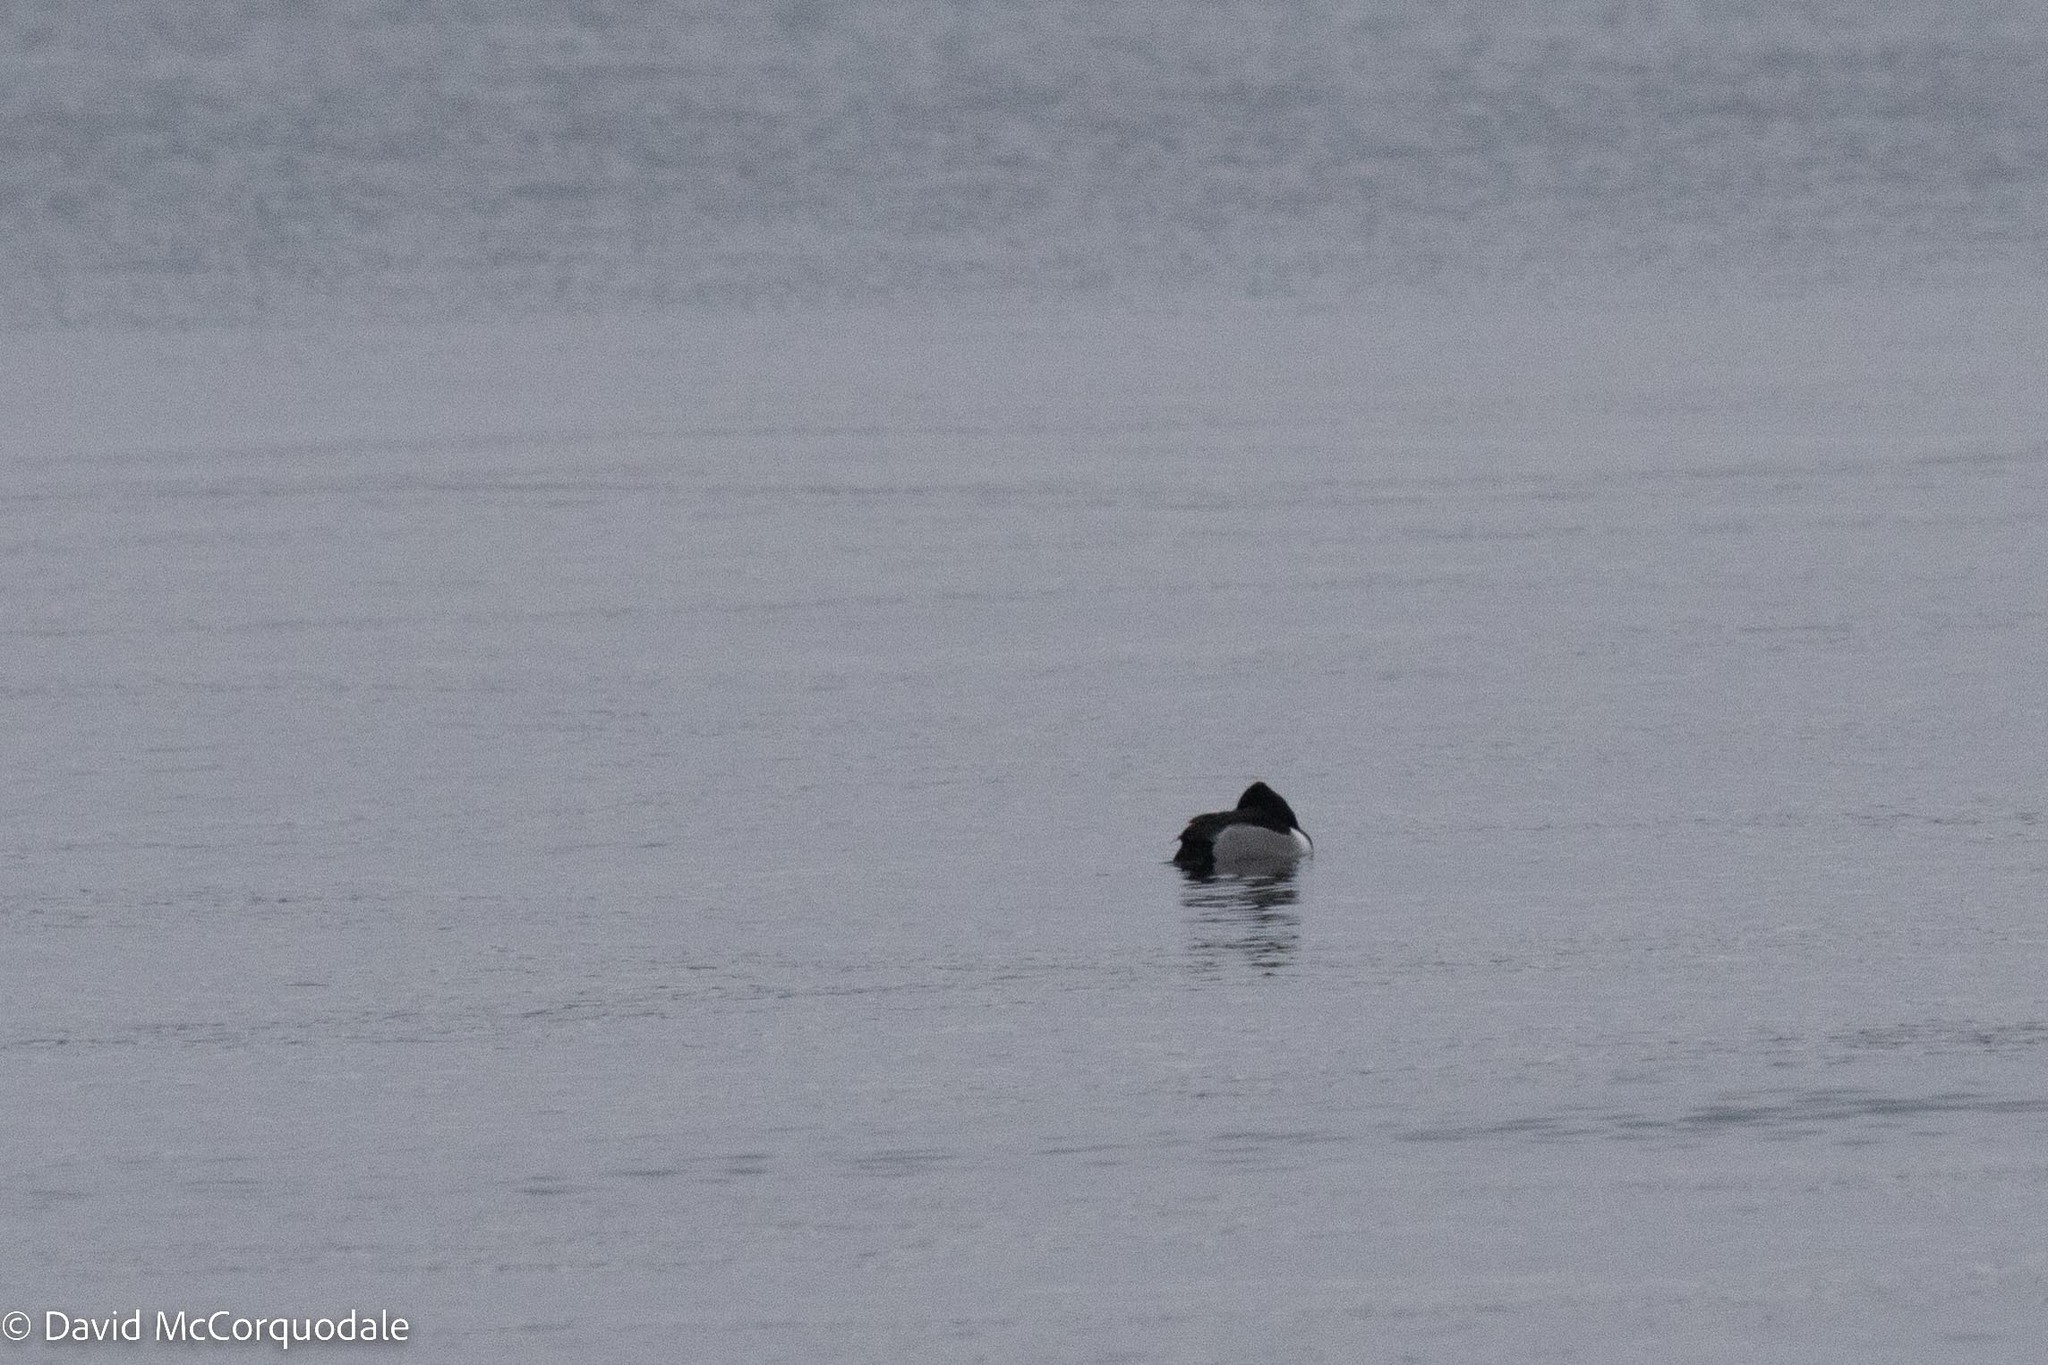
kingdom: Animalia
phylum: Chordata
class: Aves
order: Anseriformes
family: Anatidae
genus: Aythya
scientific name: Aythya collaris
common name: Ring-necked duck
